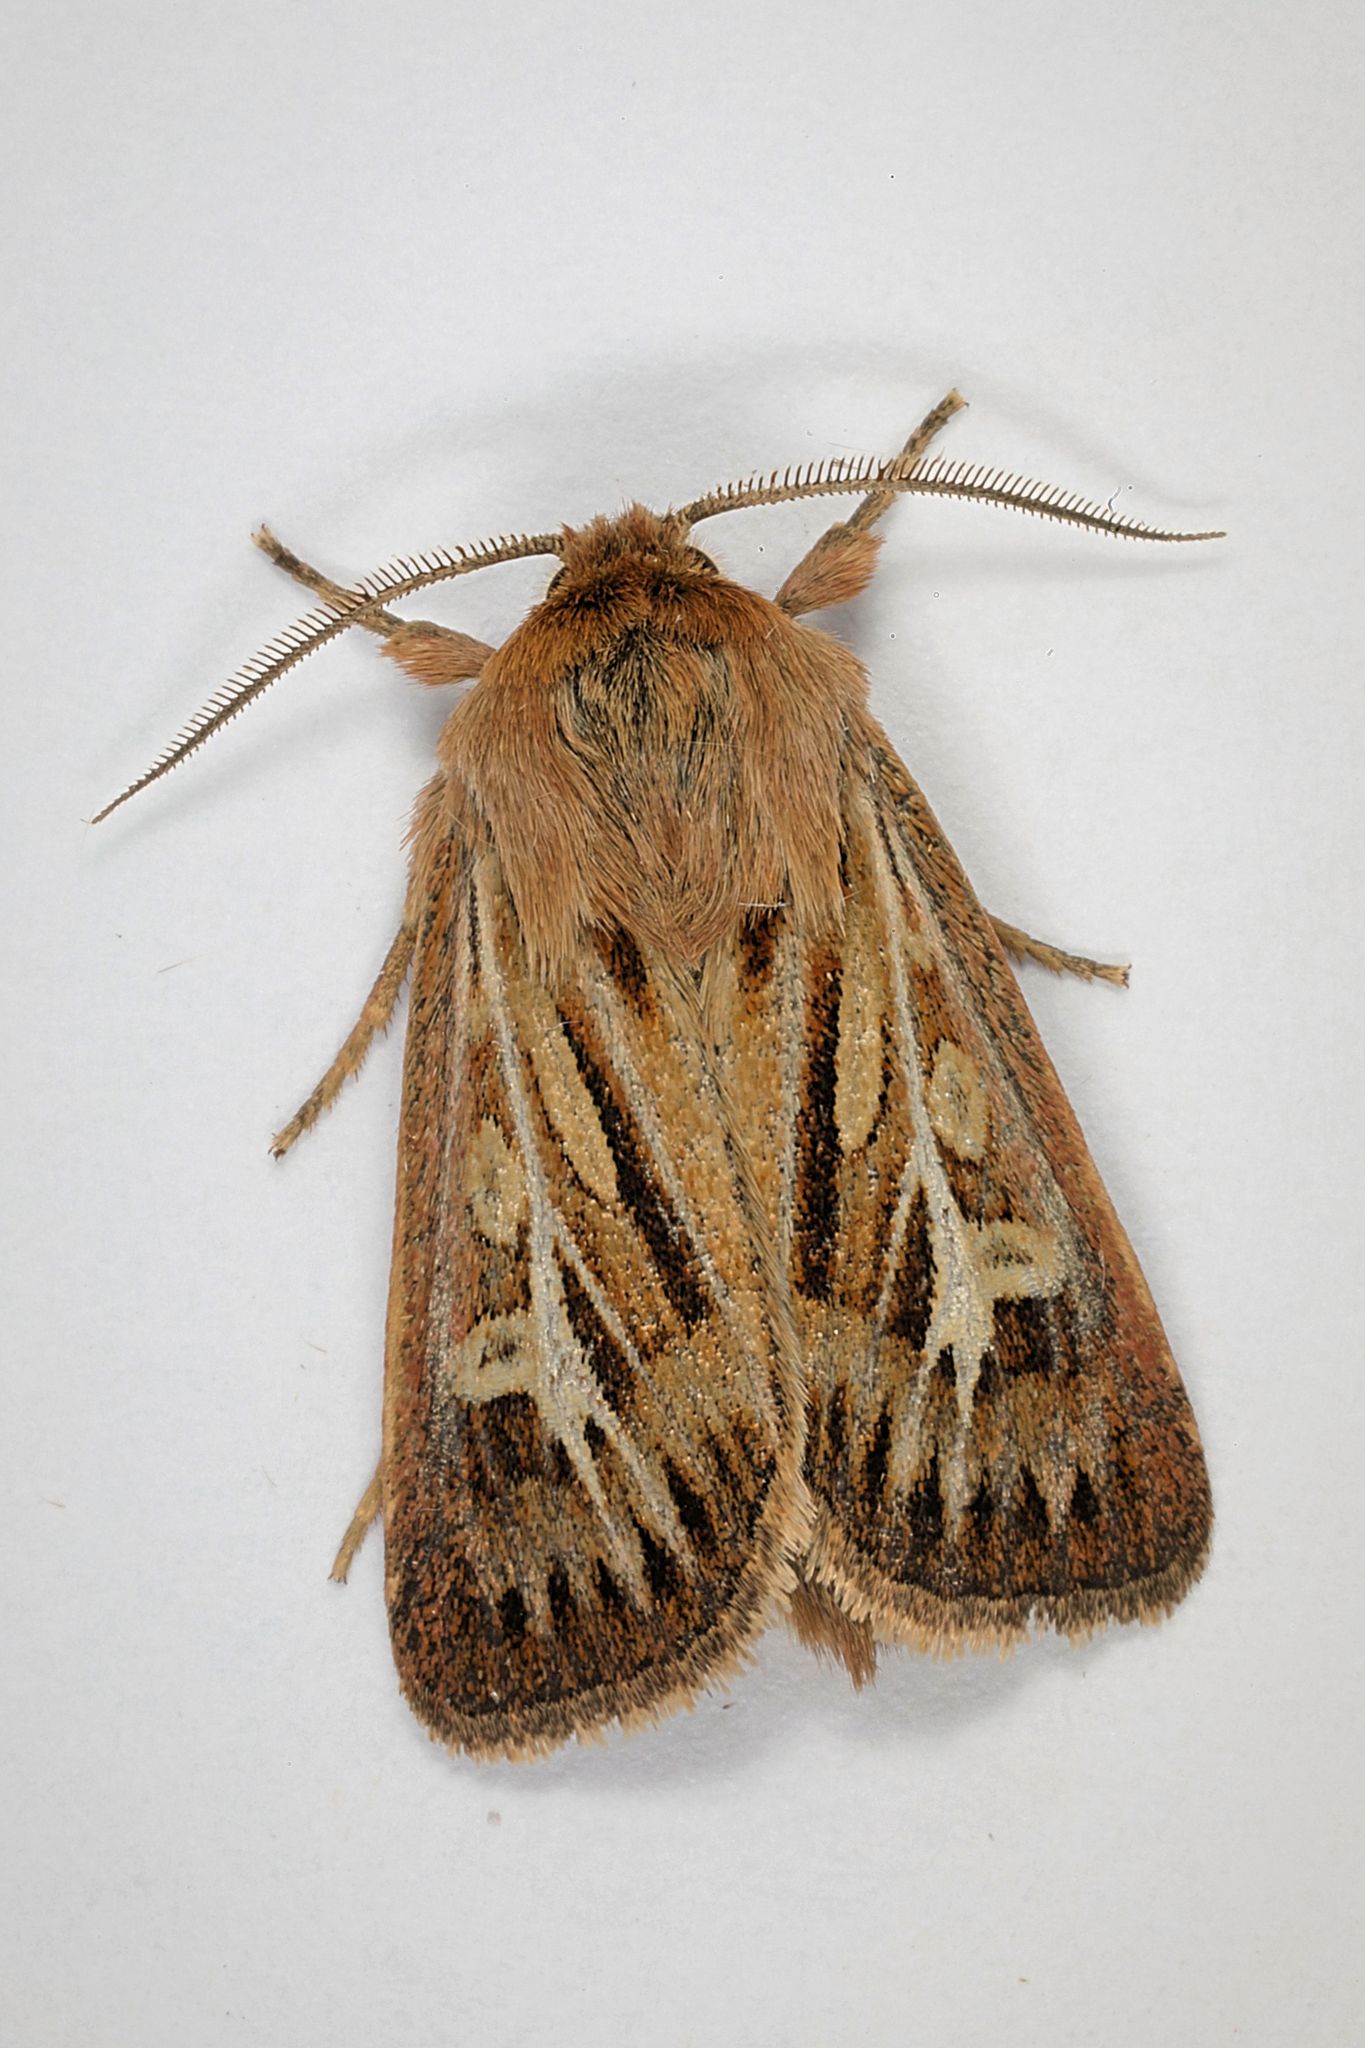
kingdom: Animalia
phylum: Arthropoda
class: Insecta
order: Lepidoptera
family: Noctuidae
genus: Cerapteryx
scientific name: Cerapteryx graminis
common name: Antler moth
